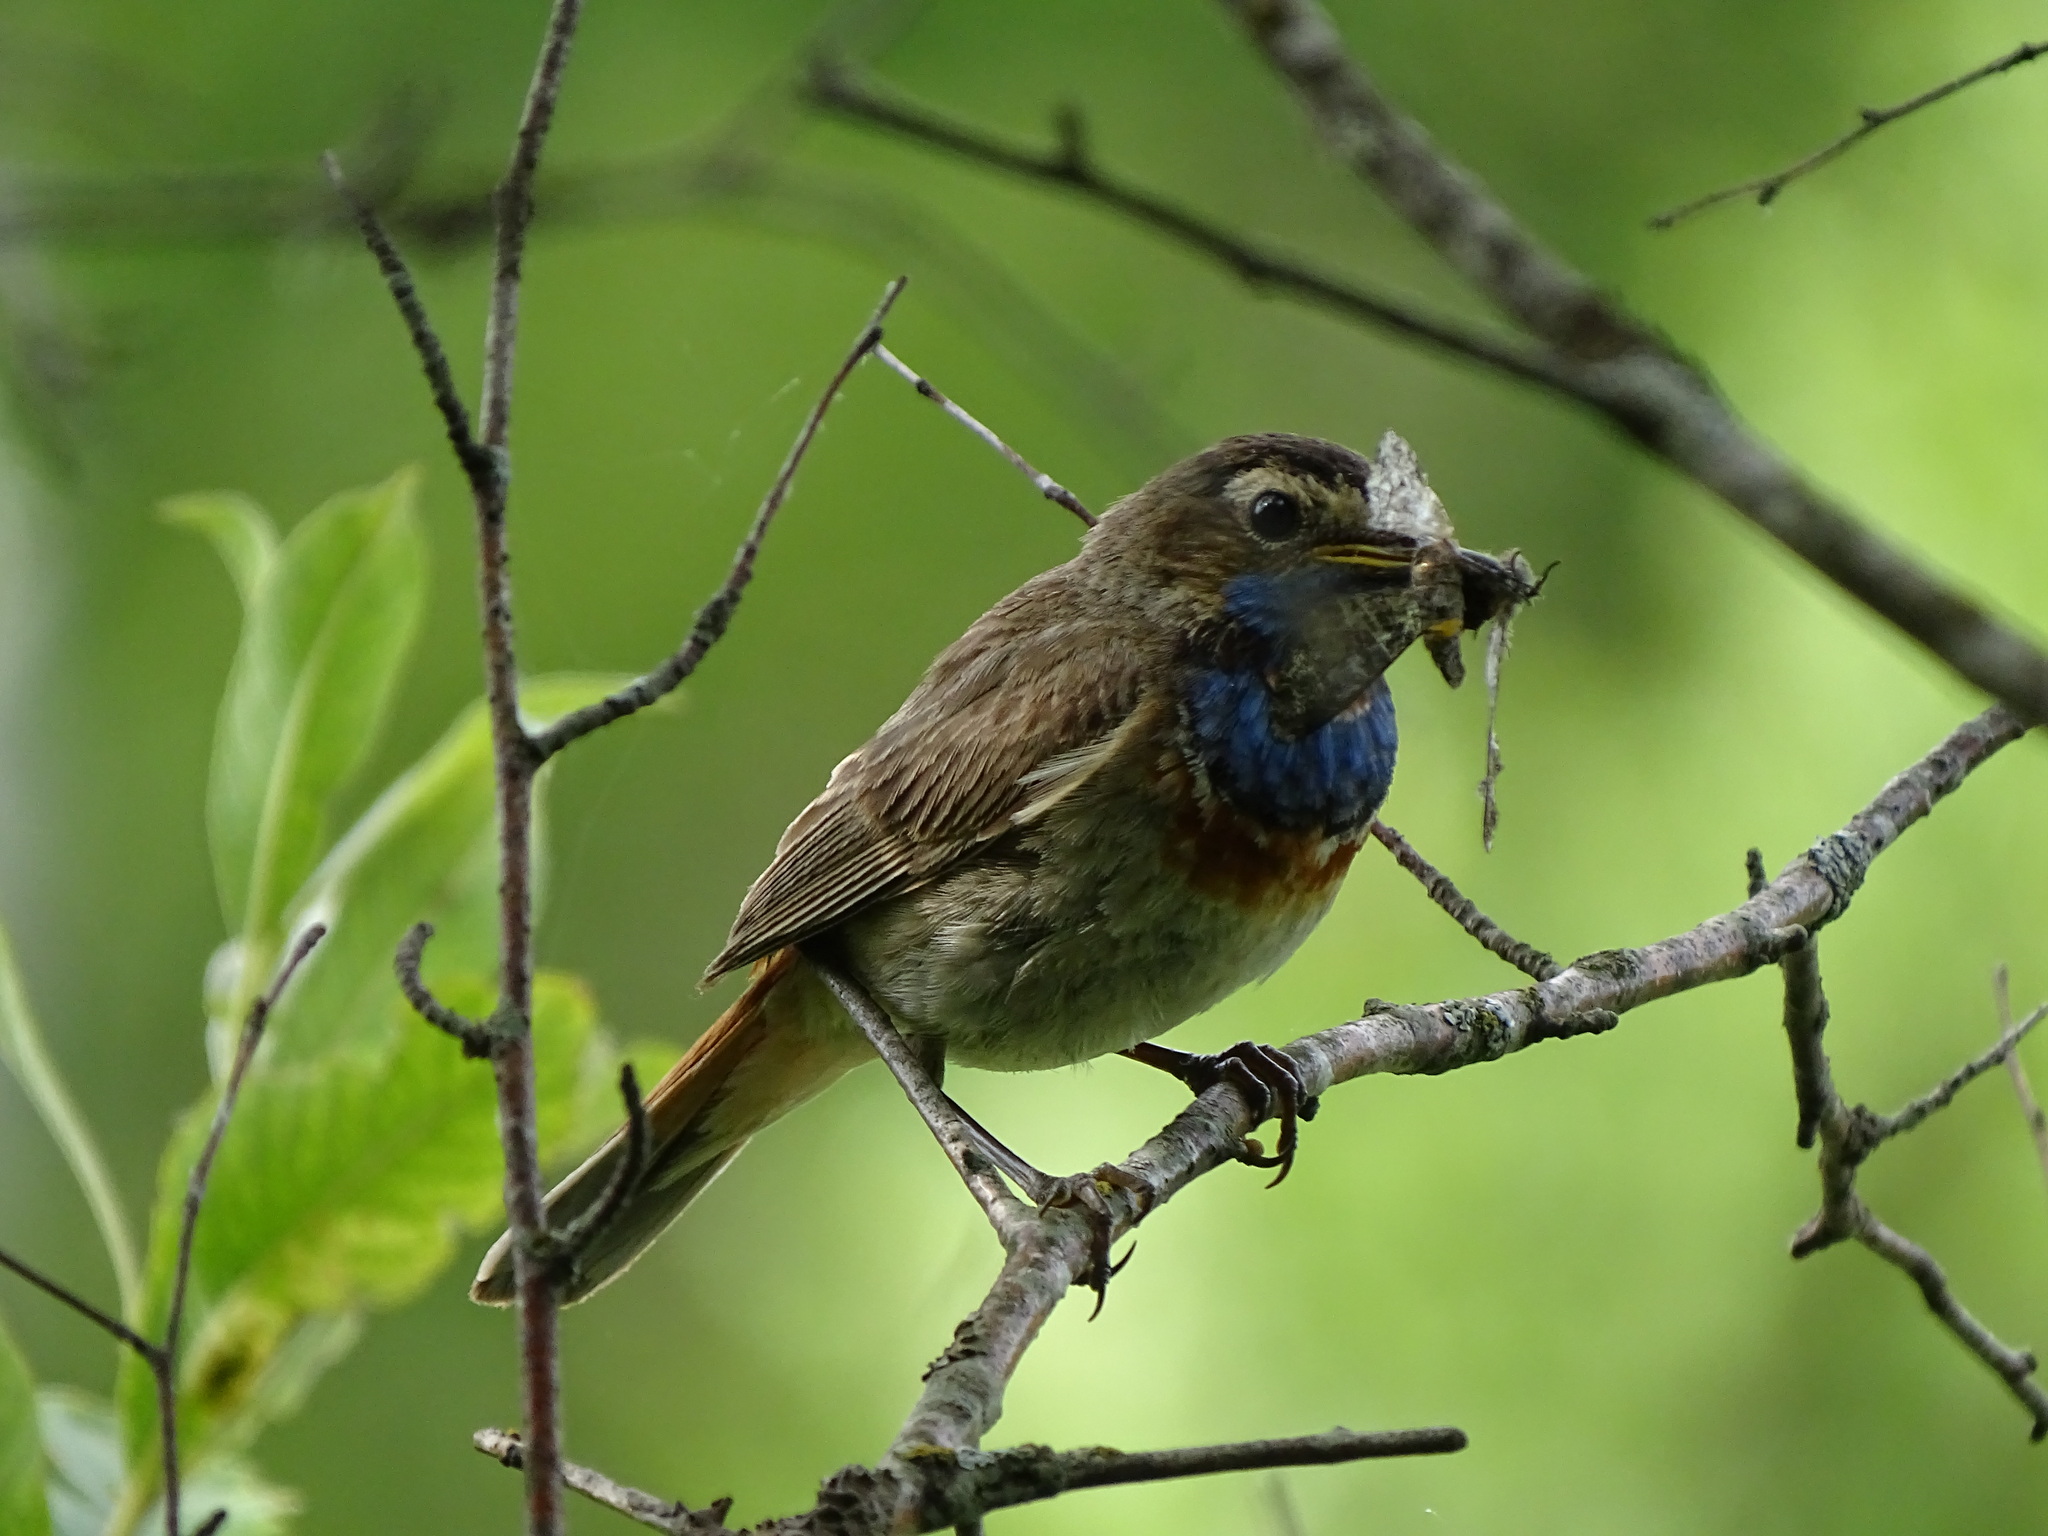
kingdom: Animalia
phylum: Chordata
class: Aves
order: Passeriformes
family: Muscicapidae
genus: Luscinia
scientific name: Luscinia svecica
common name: Bluethroat
